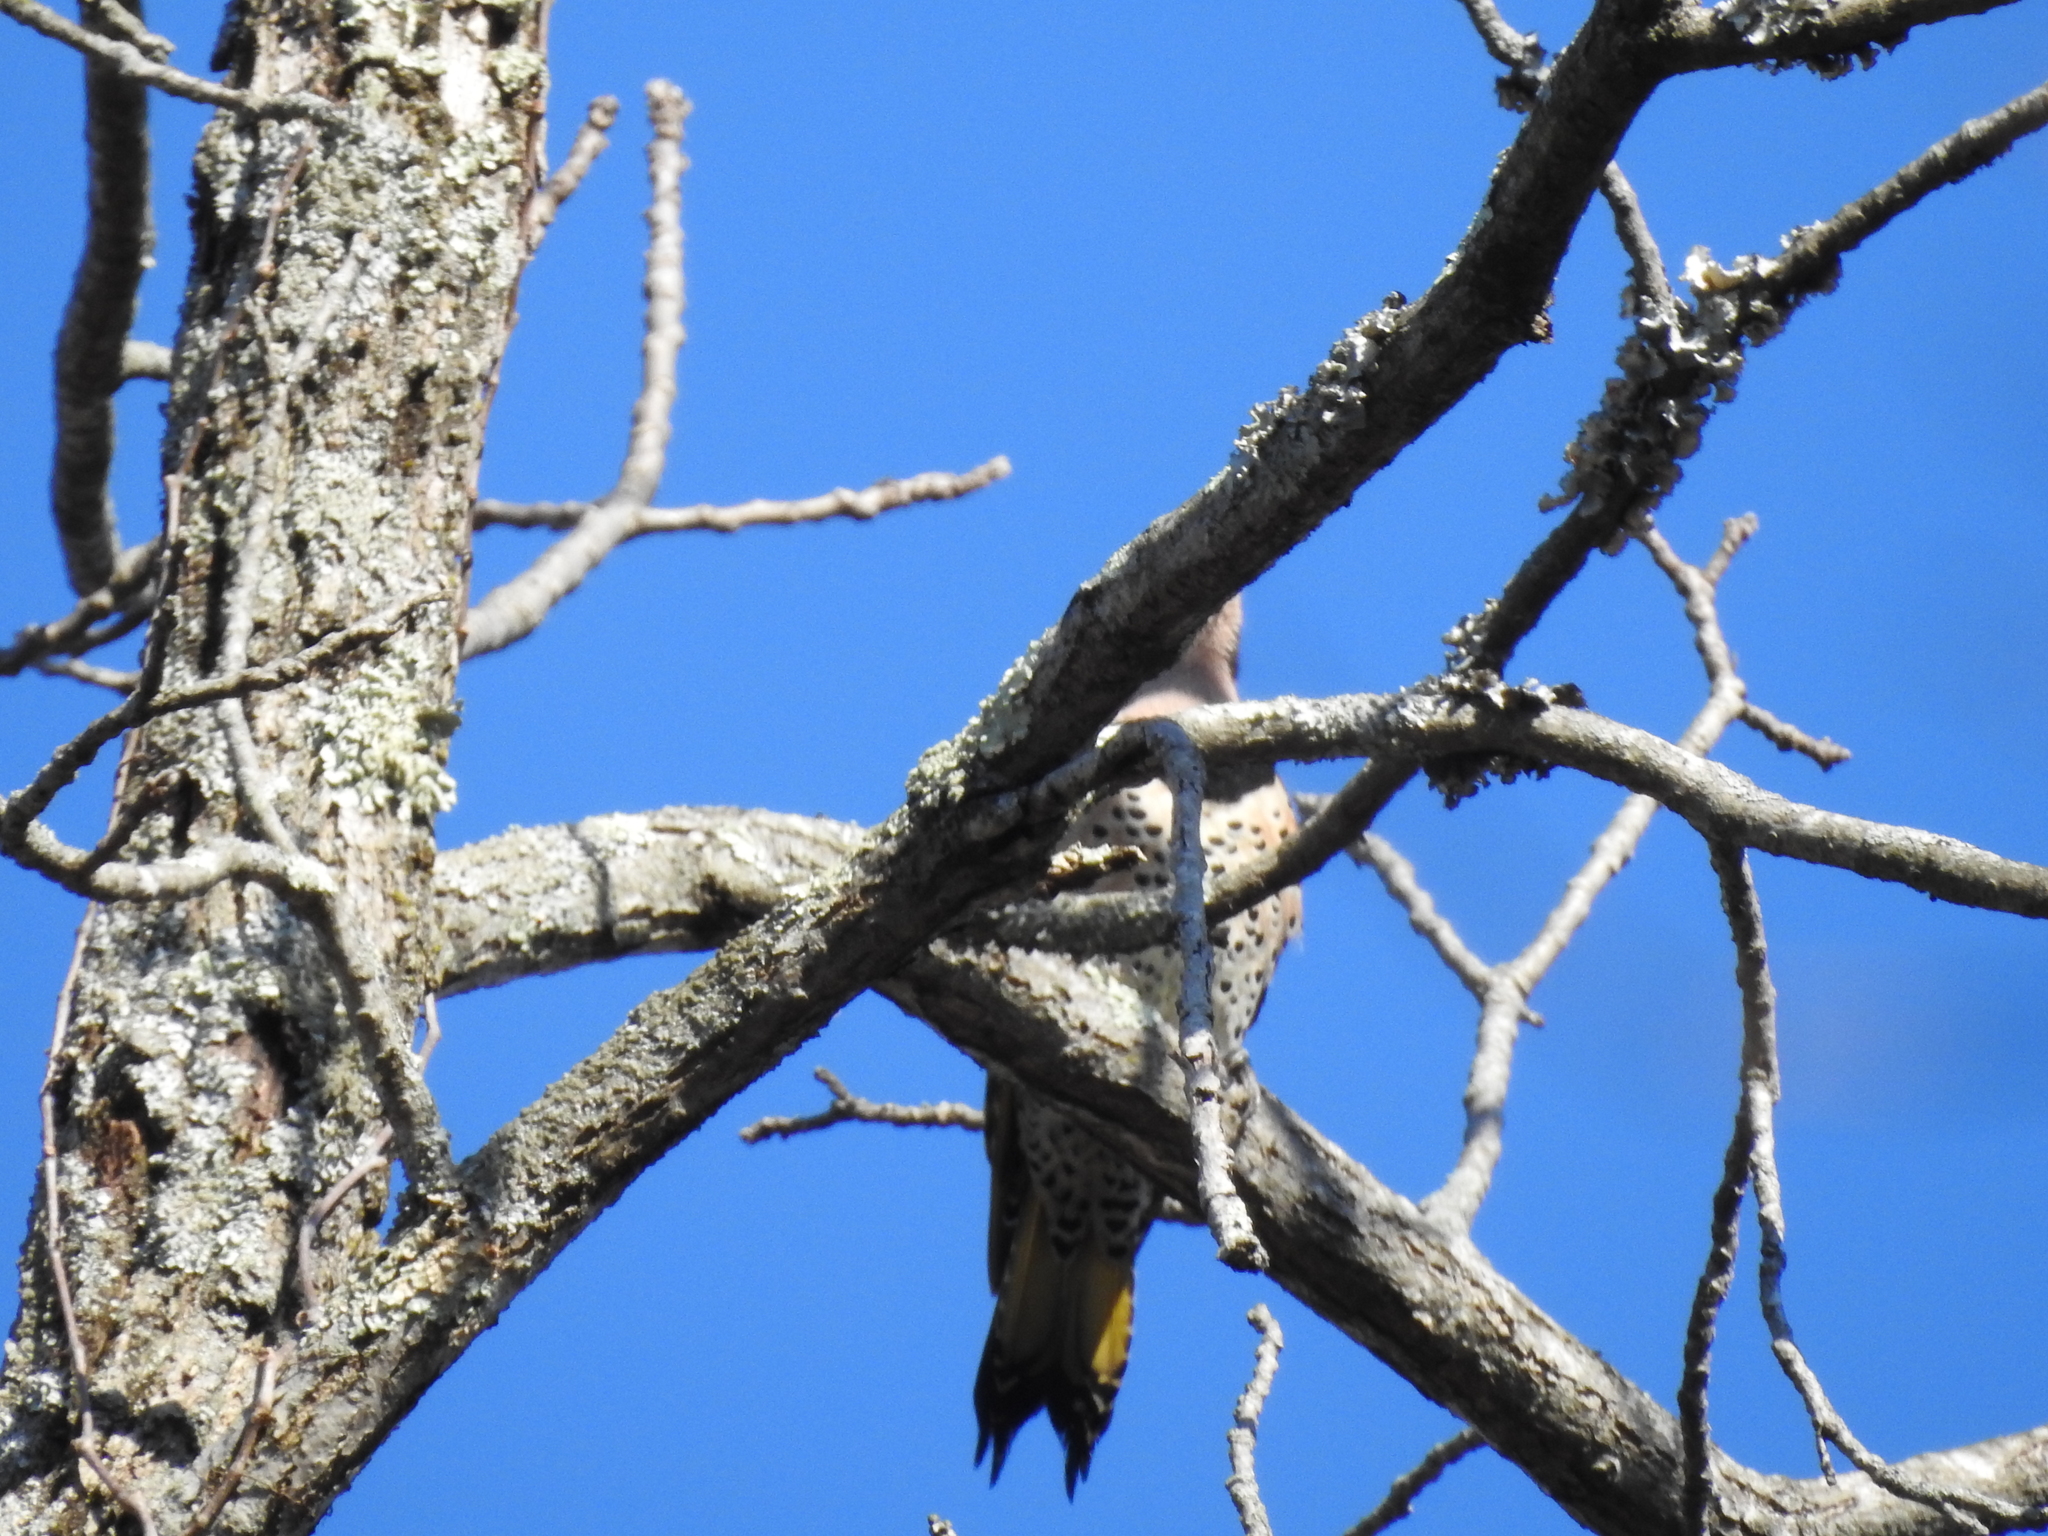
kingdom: Animalia
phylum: Chordata
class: Aves
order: Piciformes
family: Picidae
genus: Colaptes
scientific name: Colaptes auratus
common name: Northern flicker
